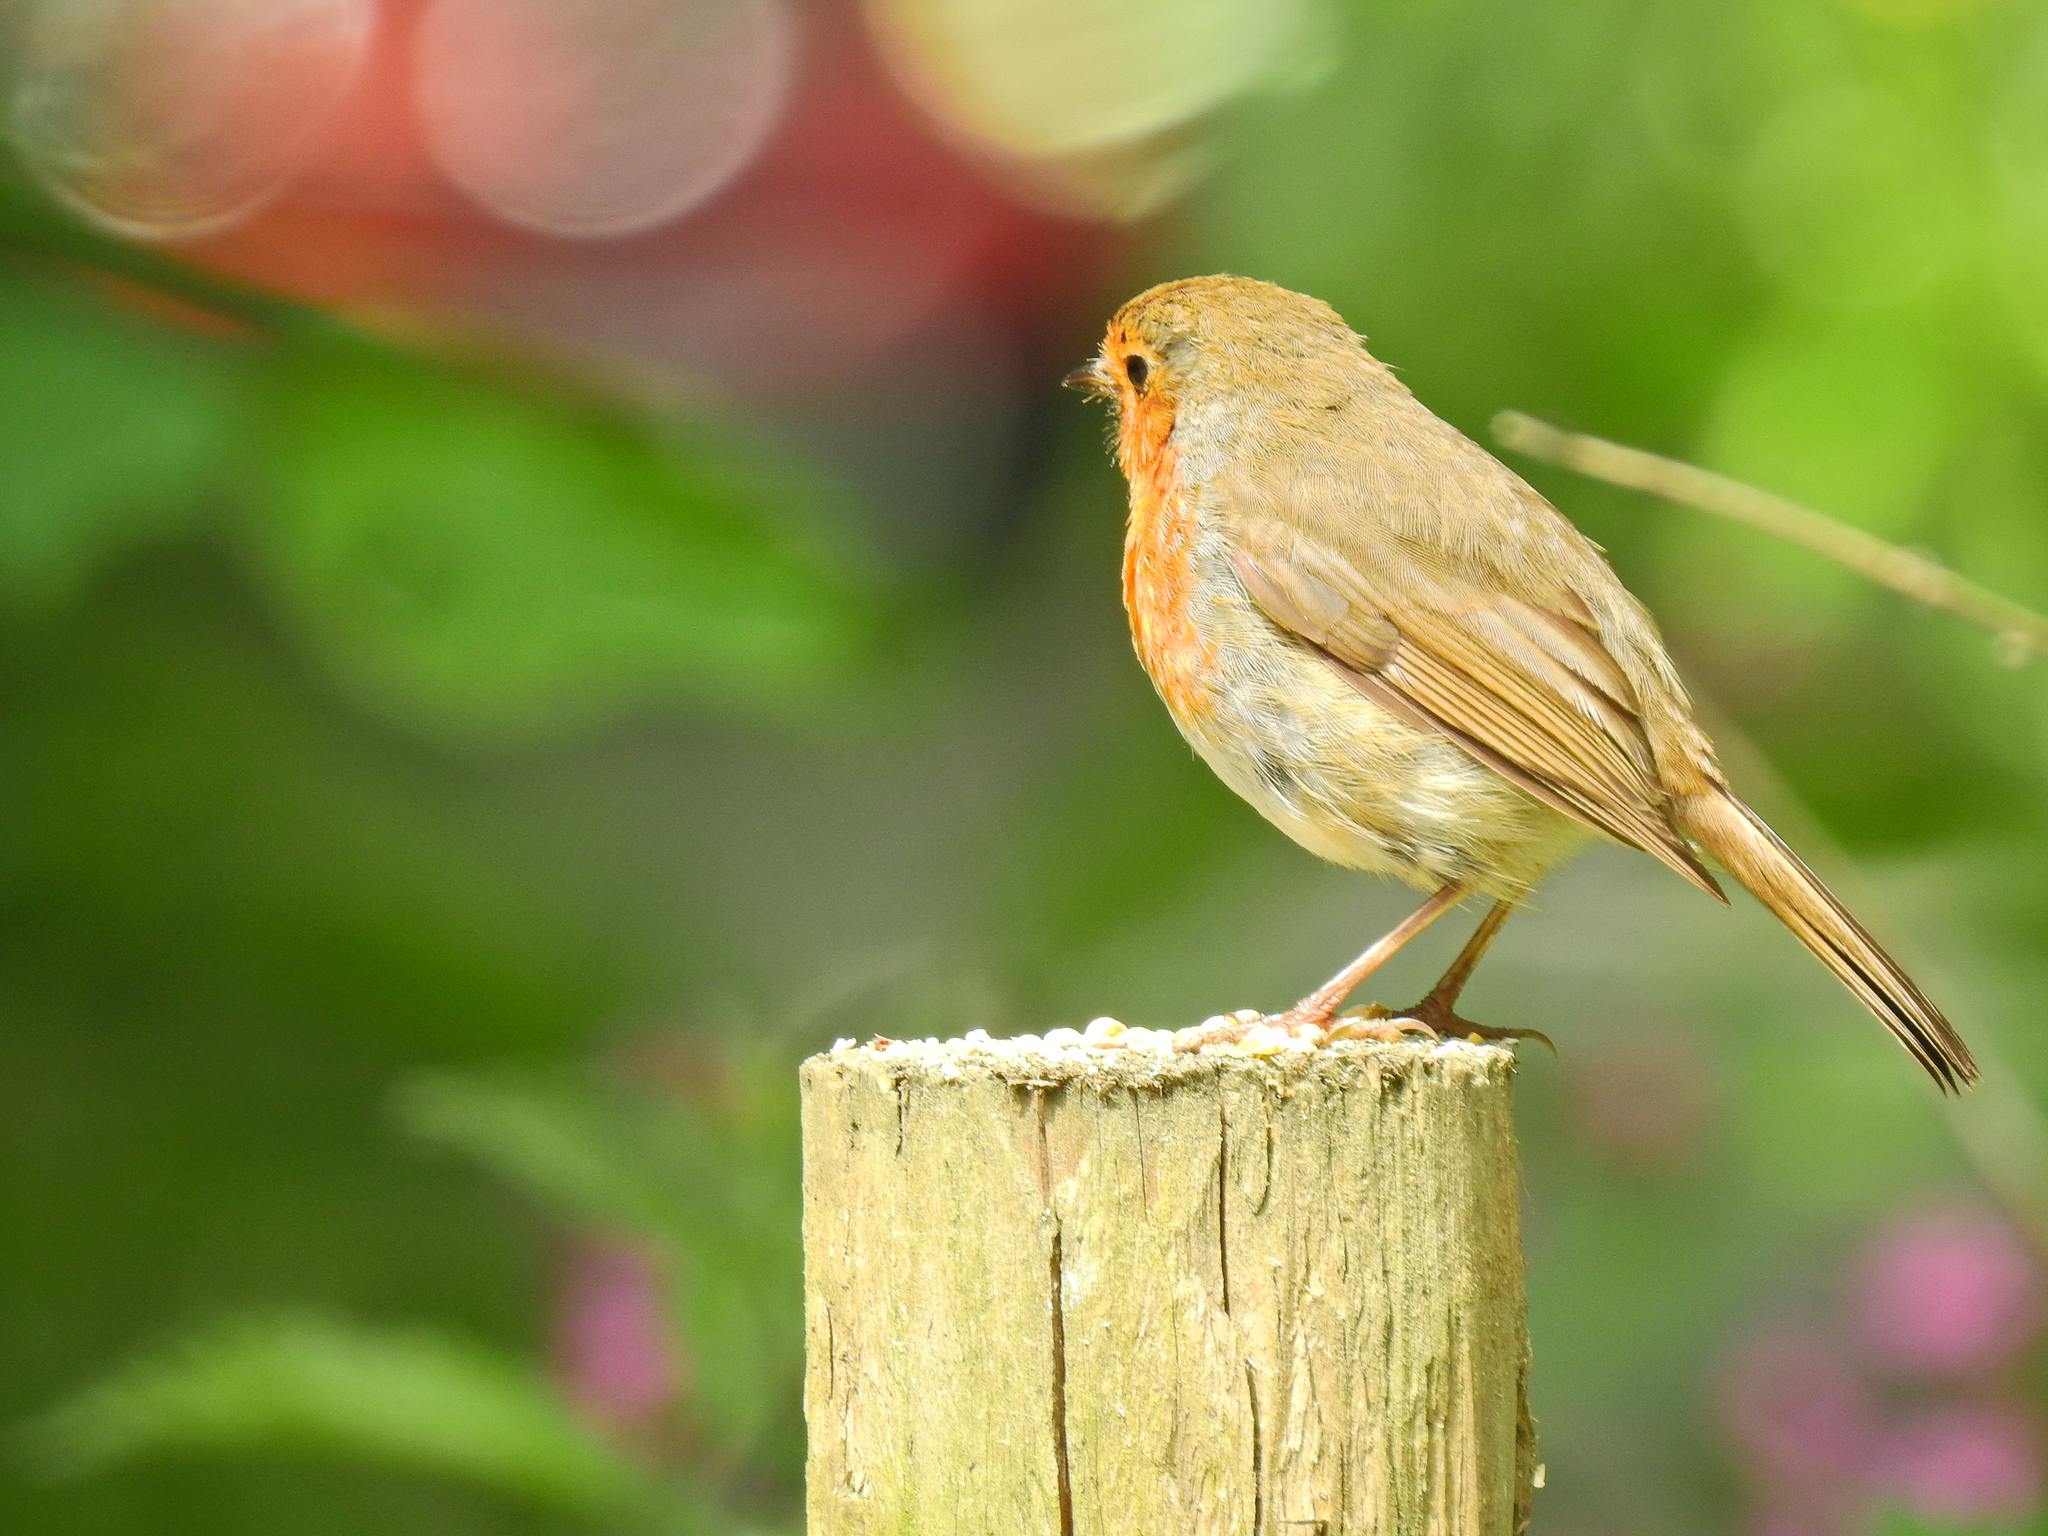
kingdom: Animalia
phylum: Chordata
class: Aves
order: Passeriformes
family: Muscicapidae
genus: Erithacus
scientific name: Erithacus rubecula
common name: European robin
